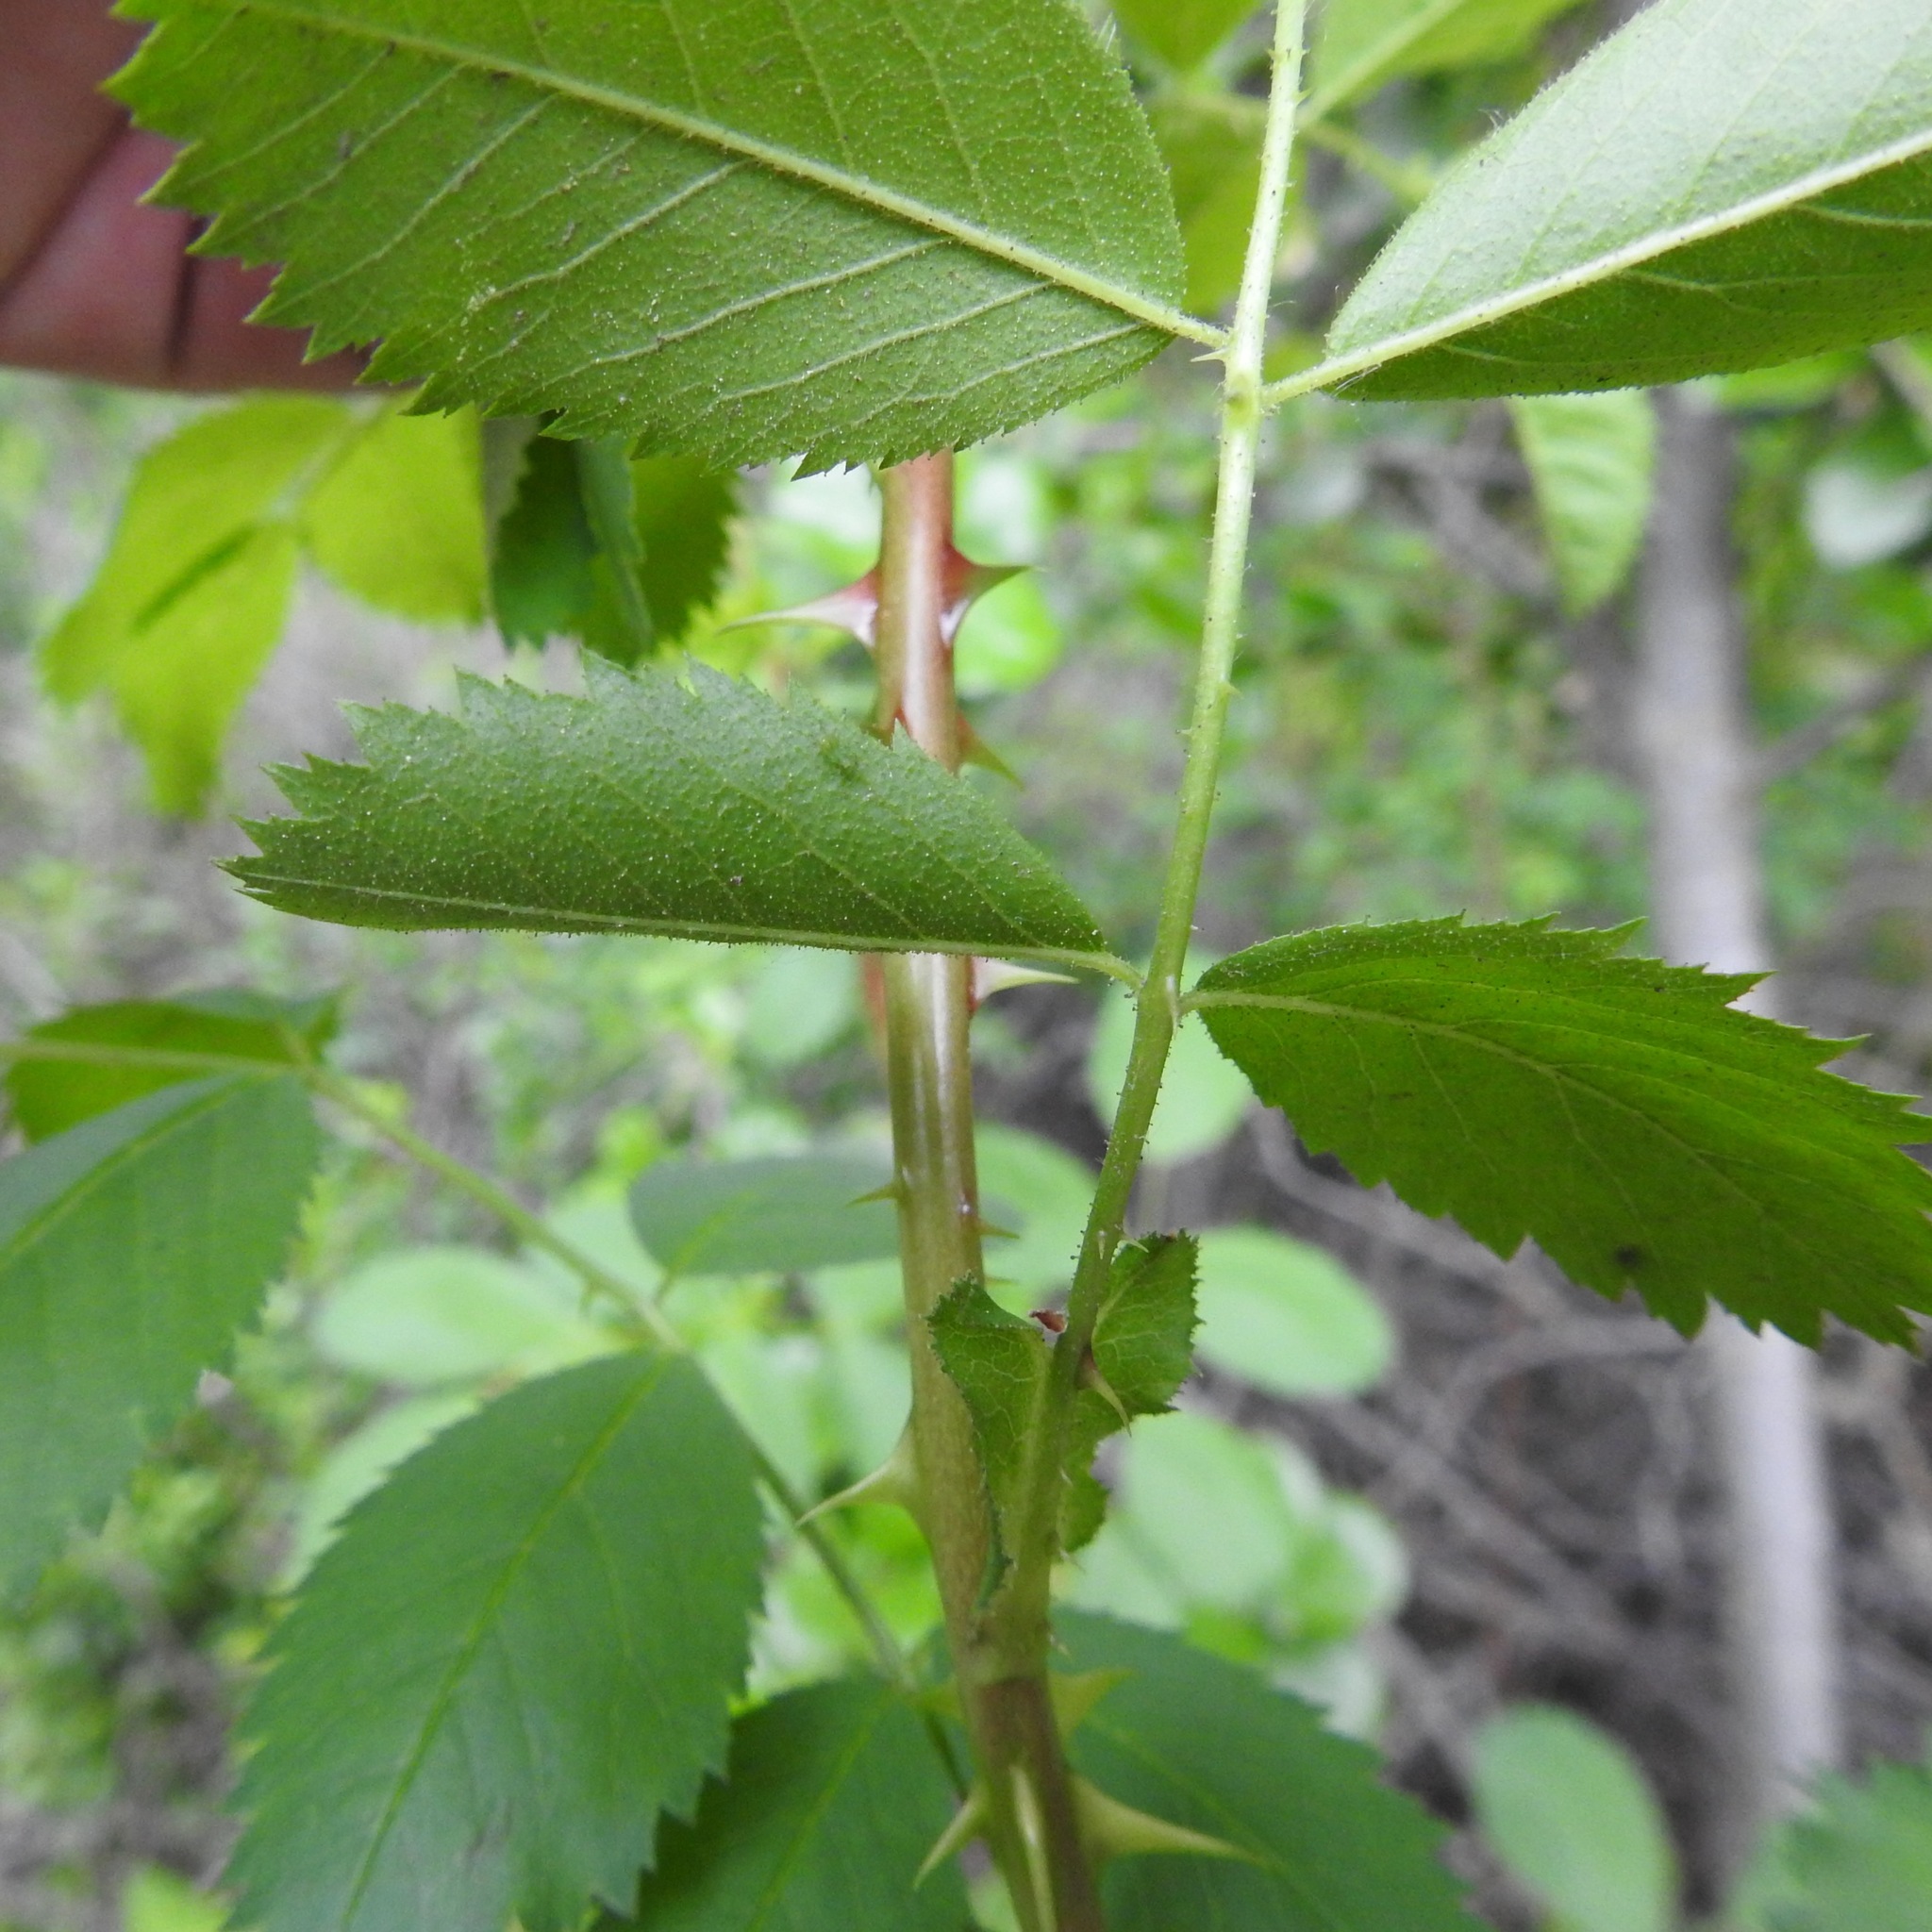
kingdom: Plantae
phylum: Tracheophyta
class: Magnoliopsida
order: Rosales
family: Rosaceae
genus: Rosa
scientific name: Rosa californica
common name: California rose
